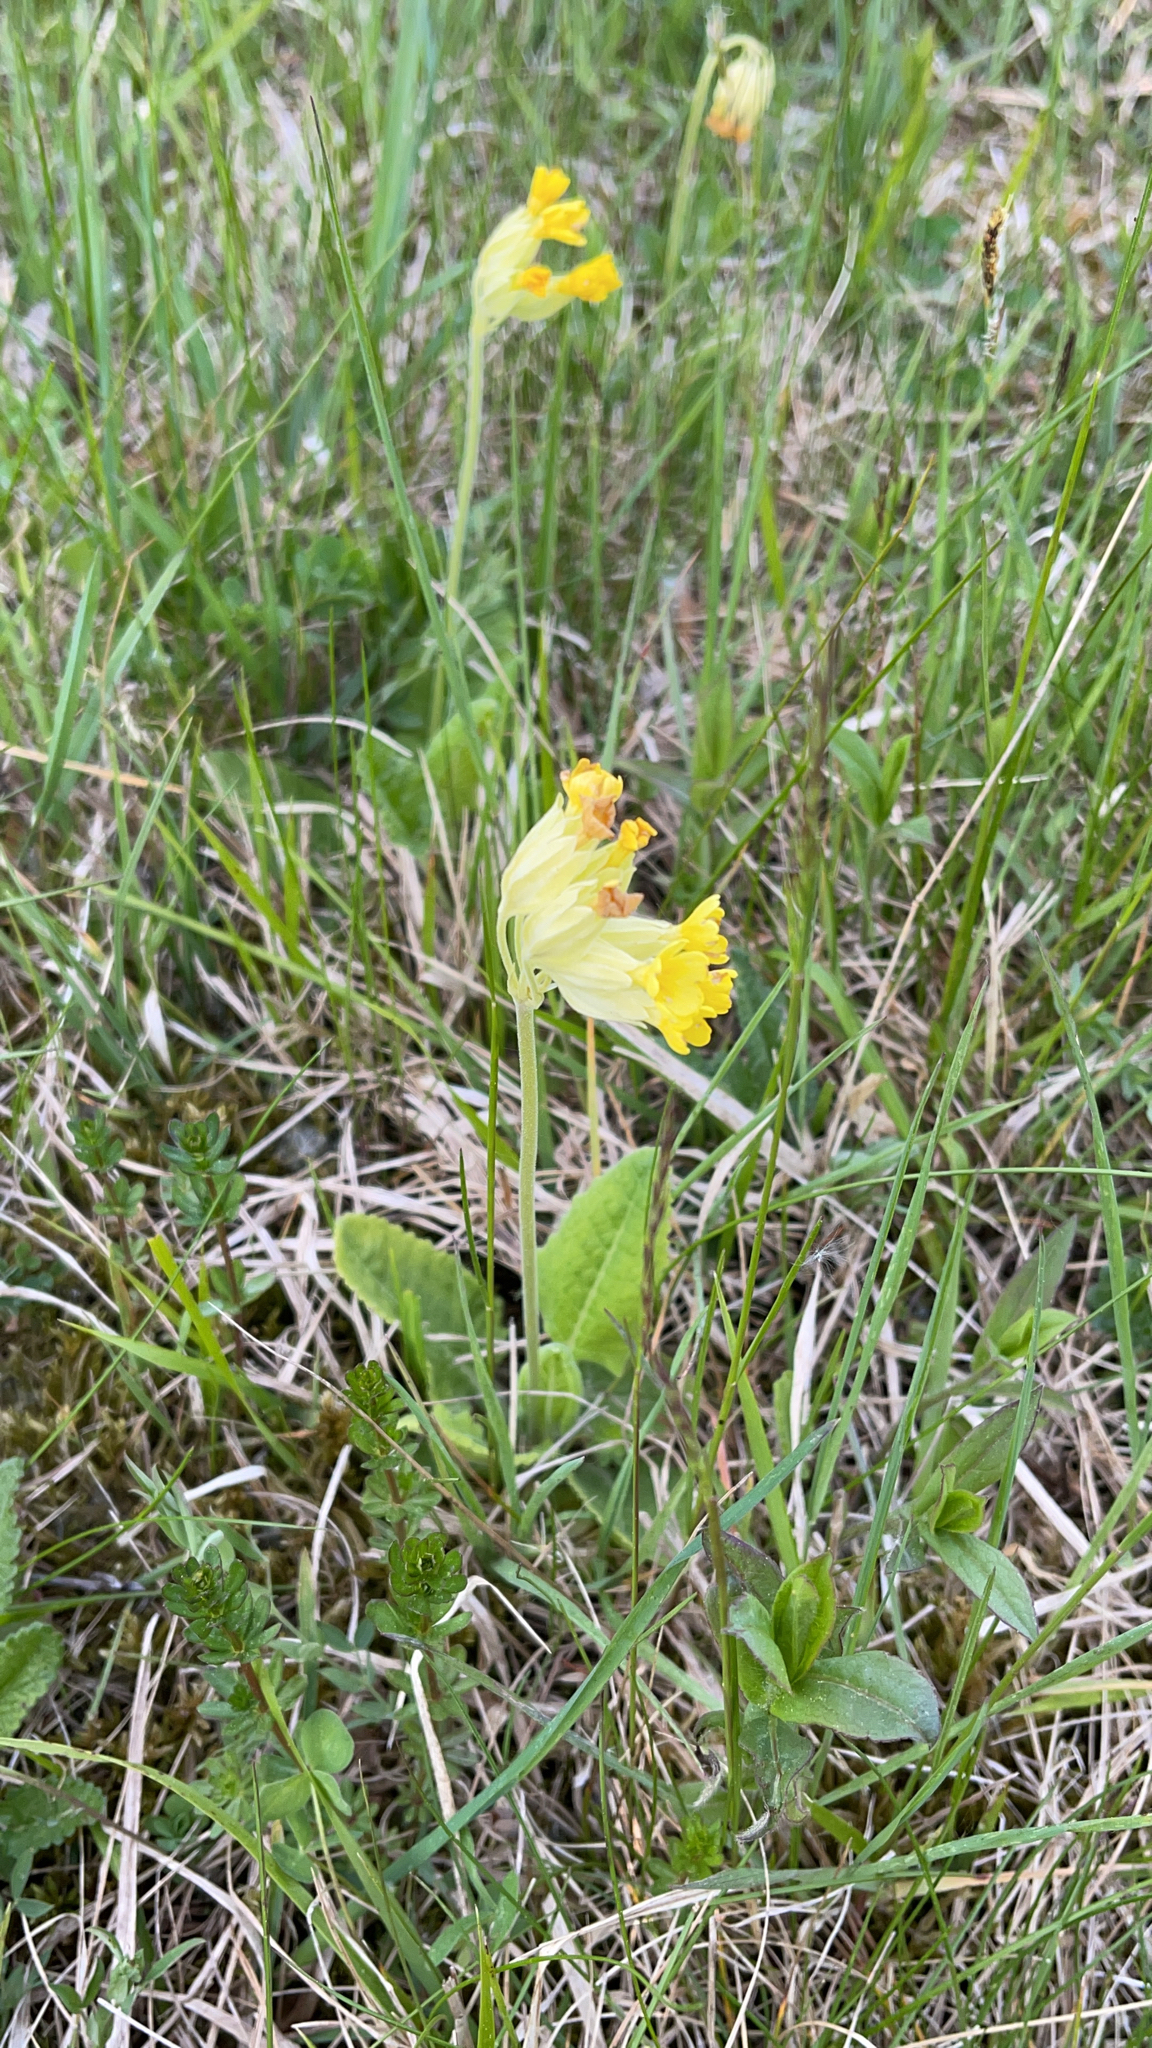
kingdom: Plantae
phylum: Tracheophyta
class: Magnoliopsida
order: Ericales
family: Primulaceae
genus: Primula
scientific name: Primula veris
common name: Cowslip
